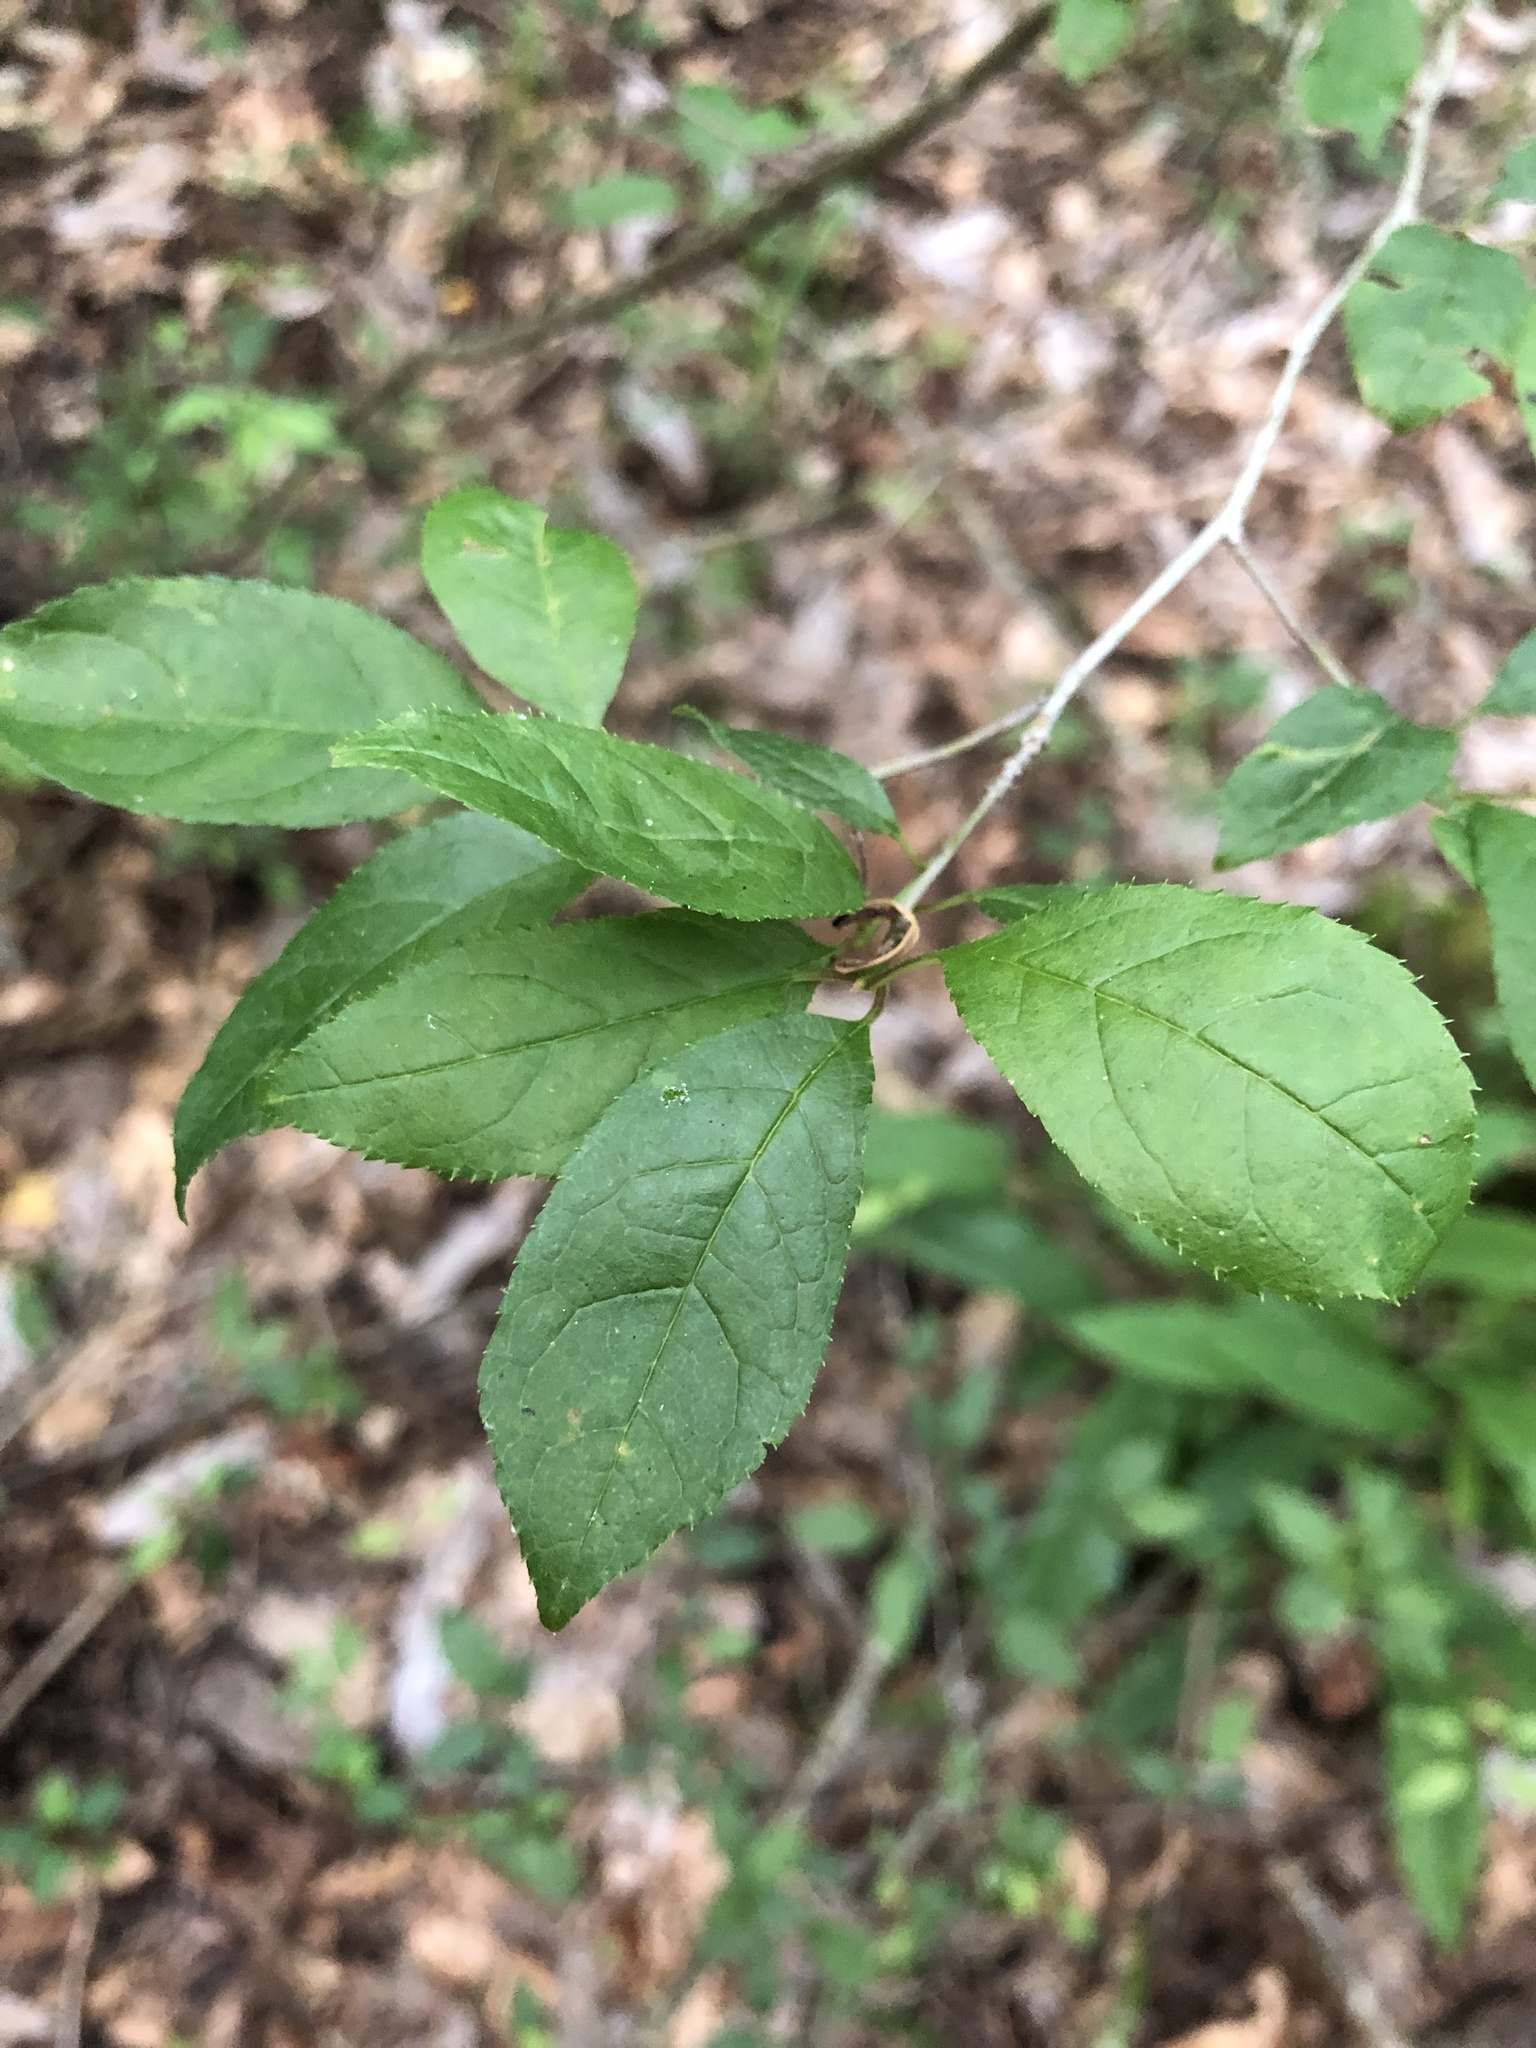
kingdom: Plantae
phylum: Tracheophyta
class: Magnoliopsida
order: Aquifoliales
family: Aquifoliaceae
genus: Ilex
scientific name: Ilex verticillata
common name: Virginia winterberry
